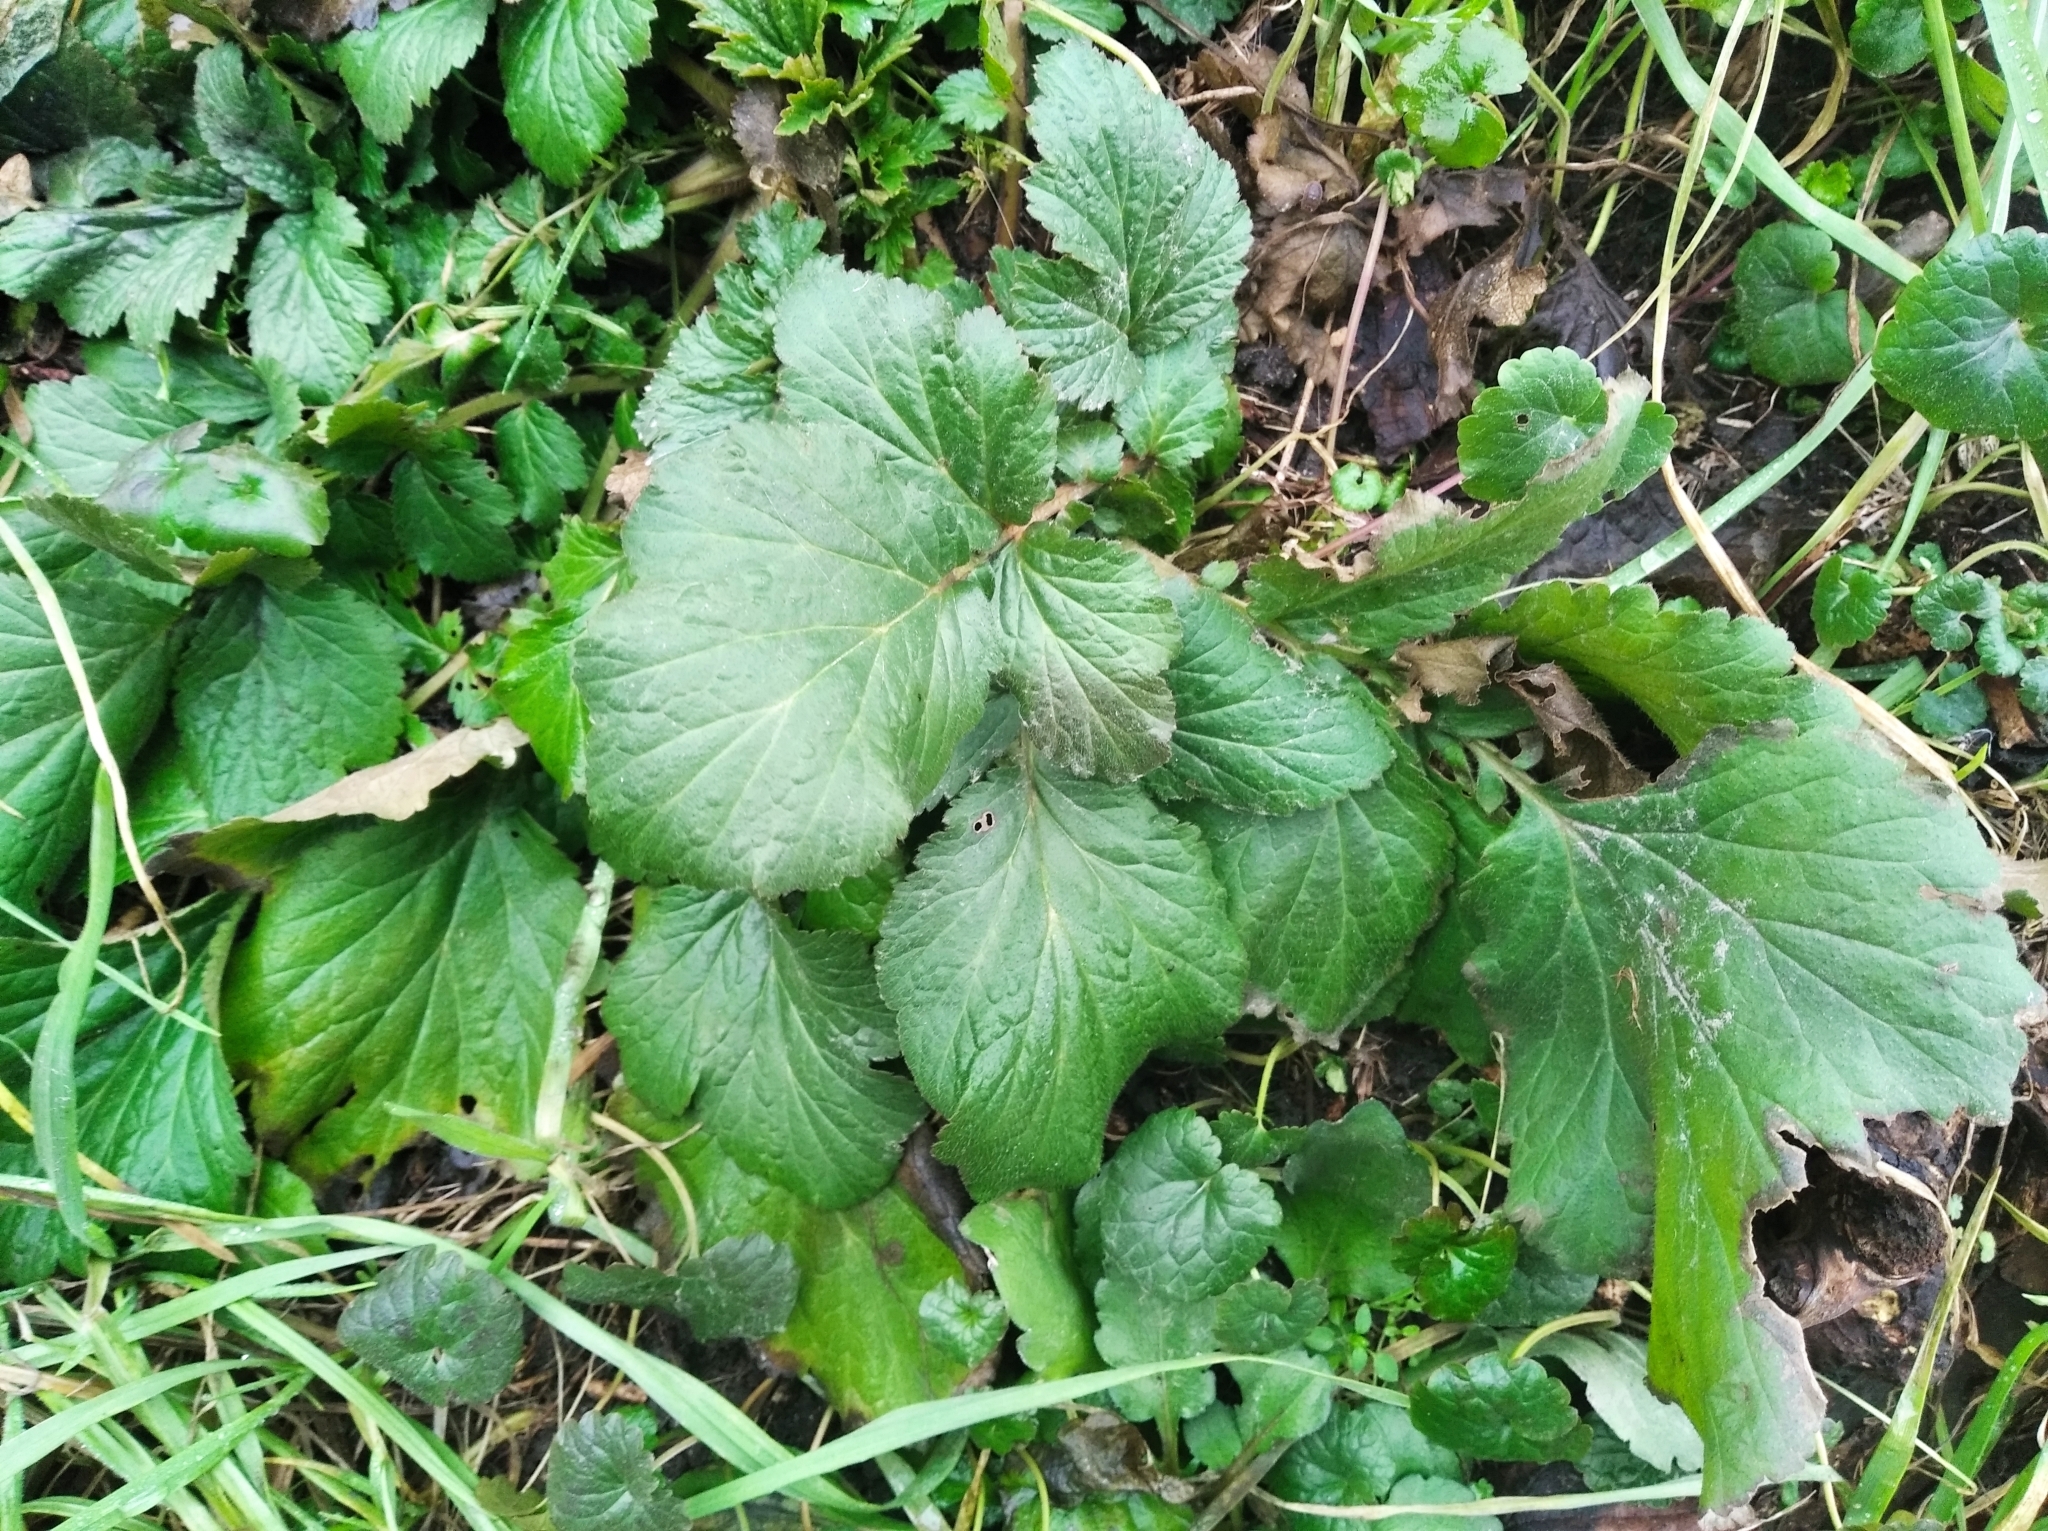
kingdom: Plantae
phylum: Tracheophyta
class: Magnoliopsida
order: Rosales
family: Rosaceae
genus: Geum
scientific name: Geum urbanum
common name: Wood avens
